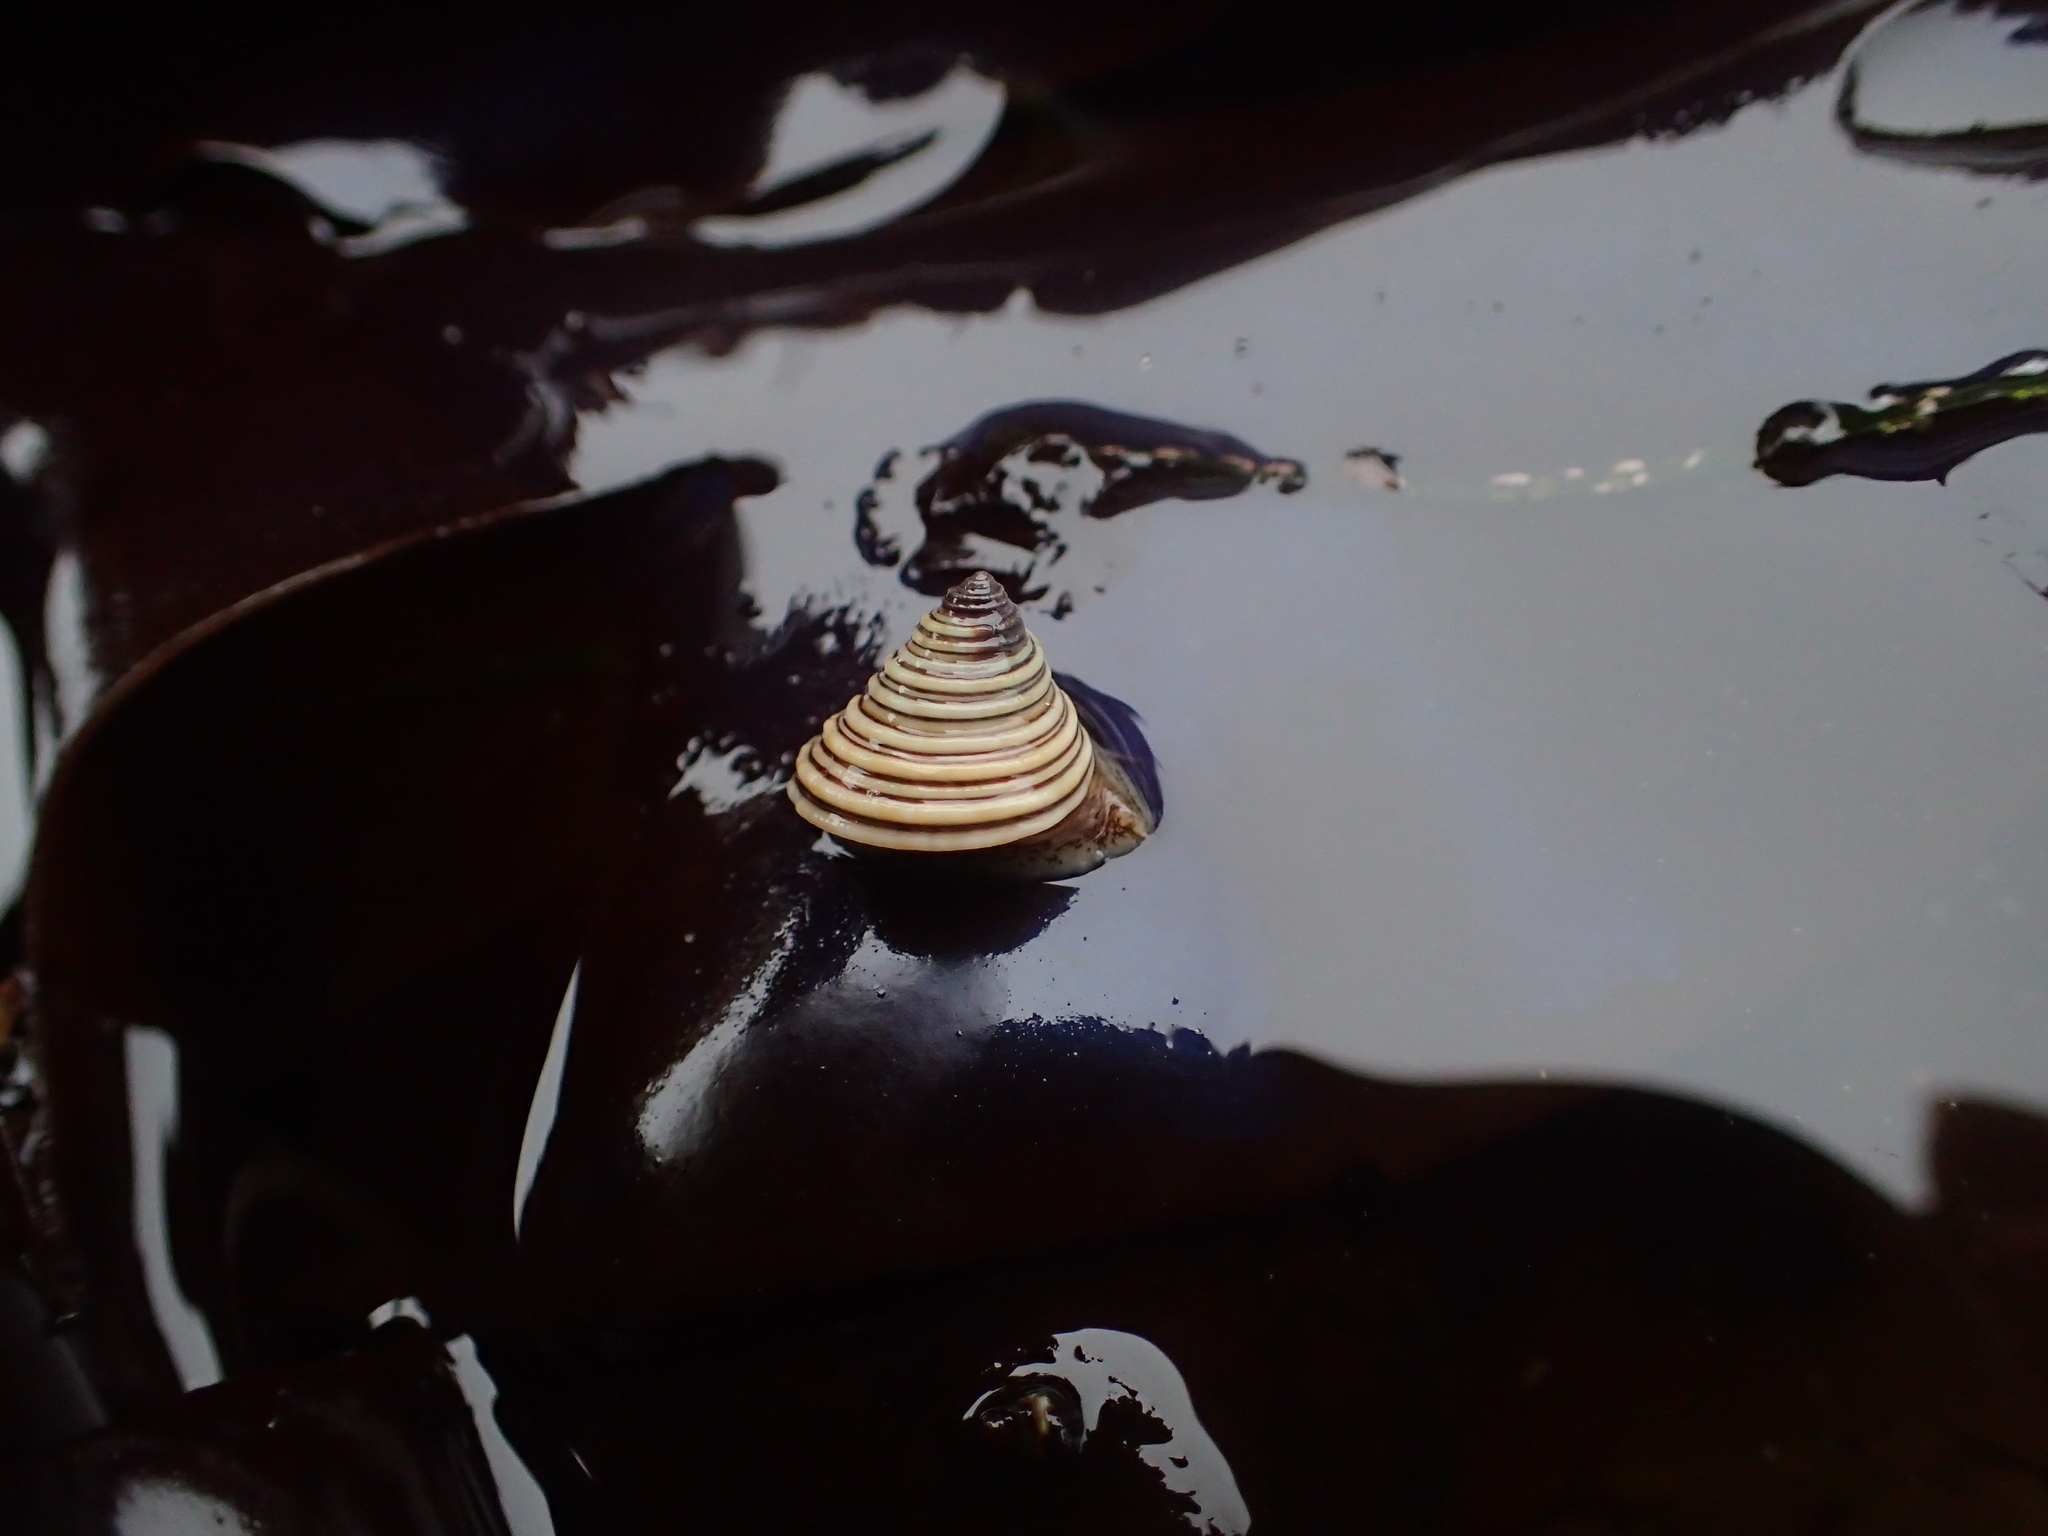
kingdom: Animalia
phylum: Mollusca
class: Gastropoda
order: Trochida
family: Calliostomatidae
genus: Calliostoma
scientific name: Calliostoma canaliculatum
